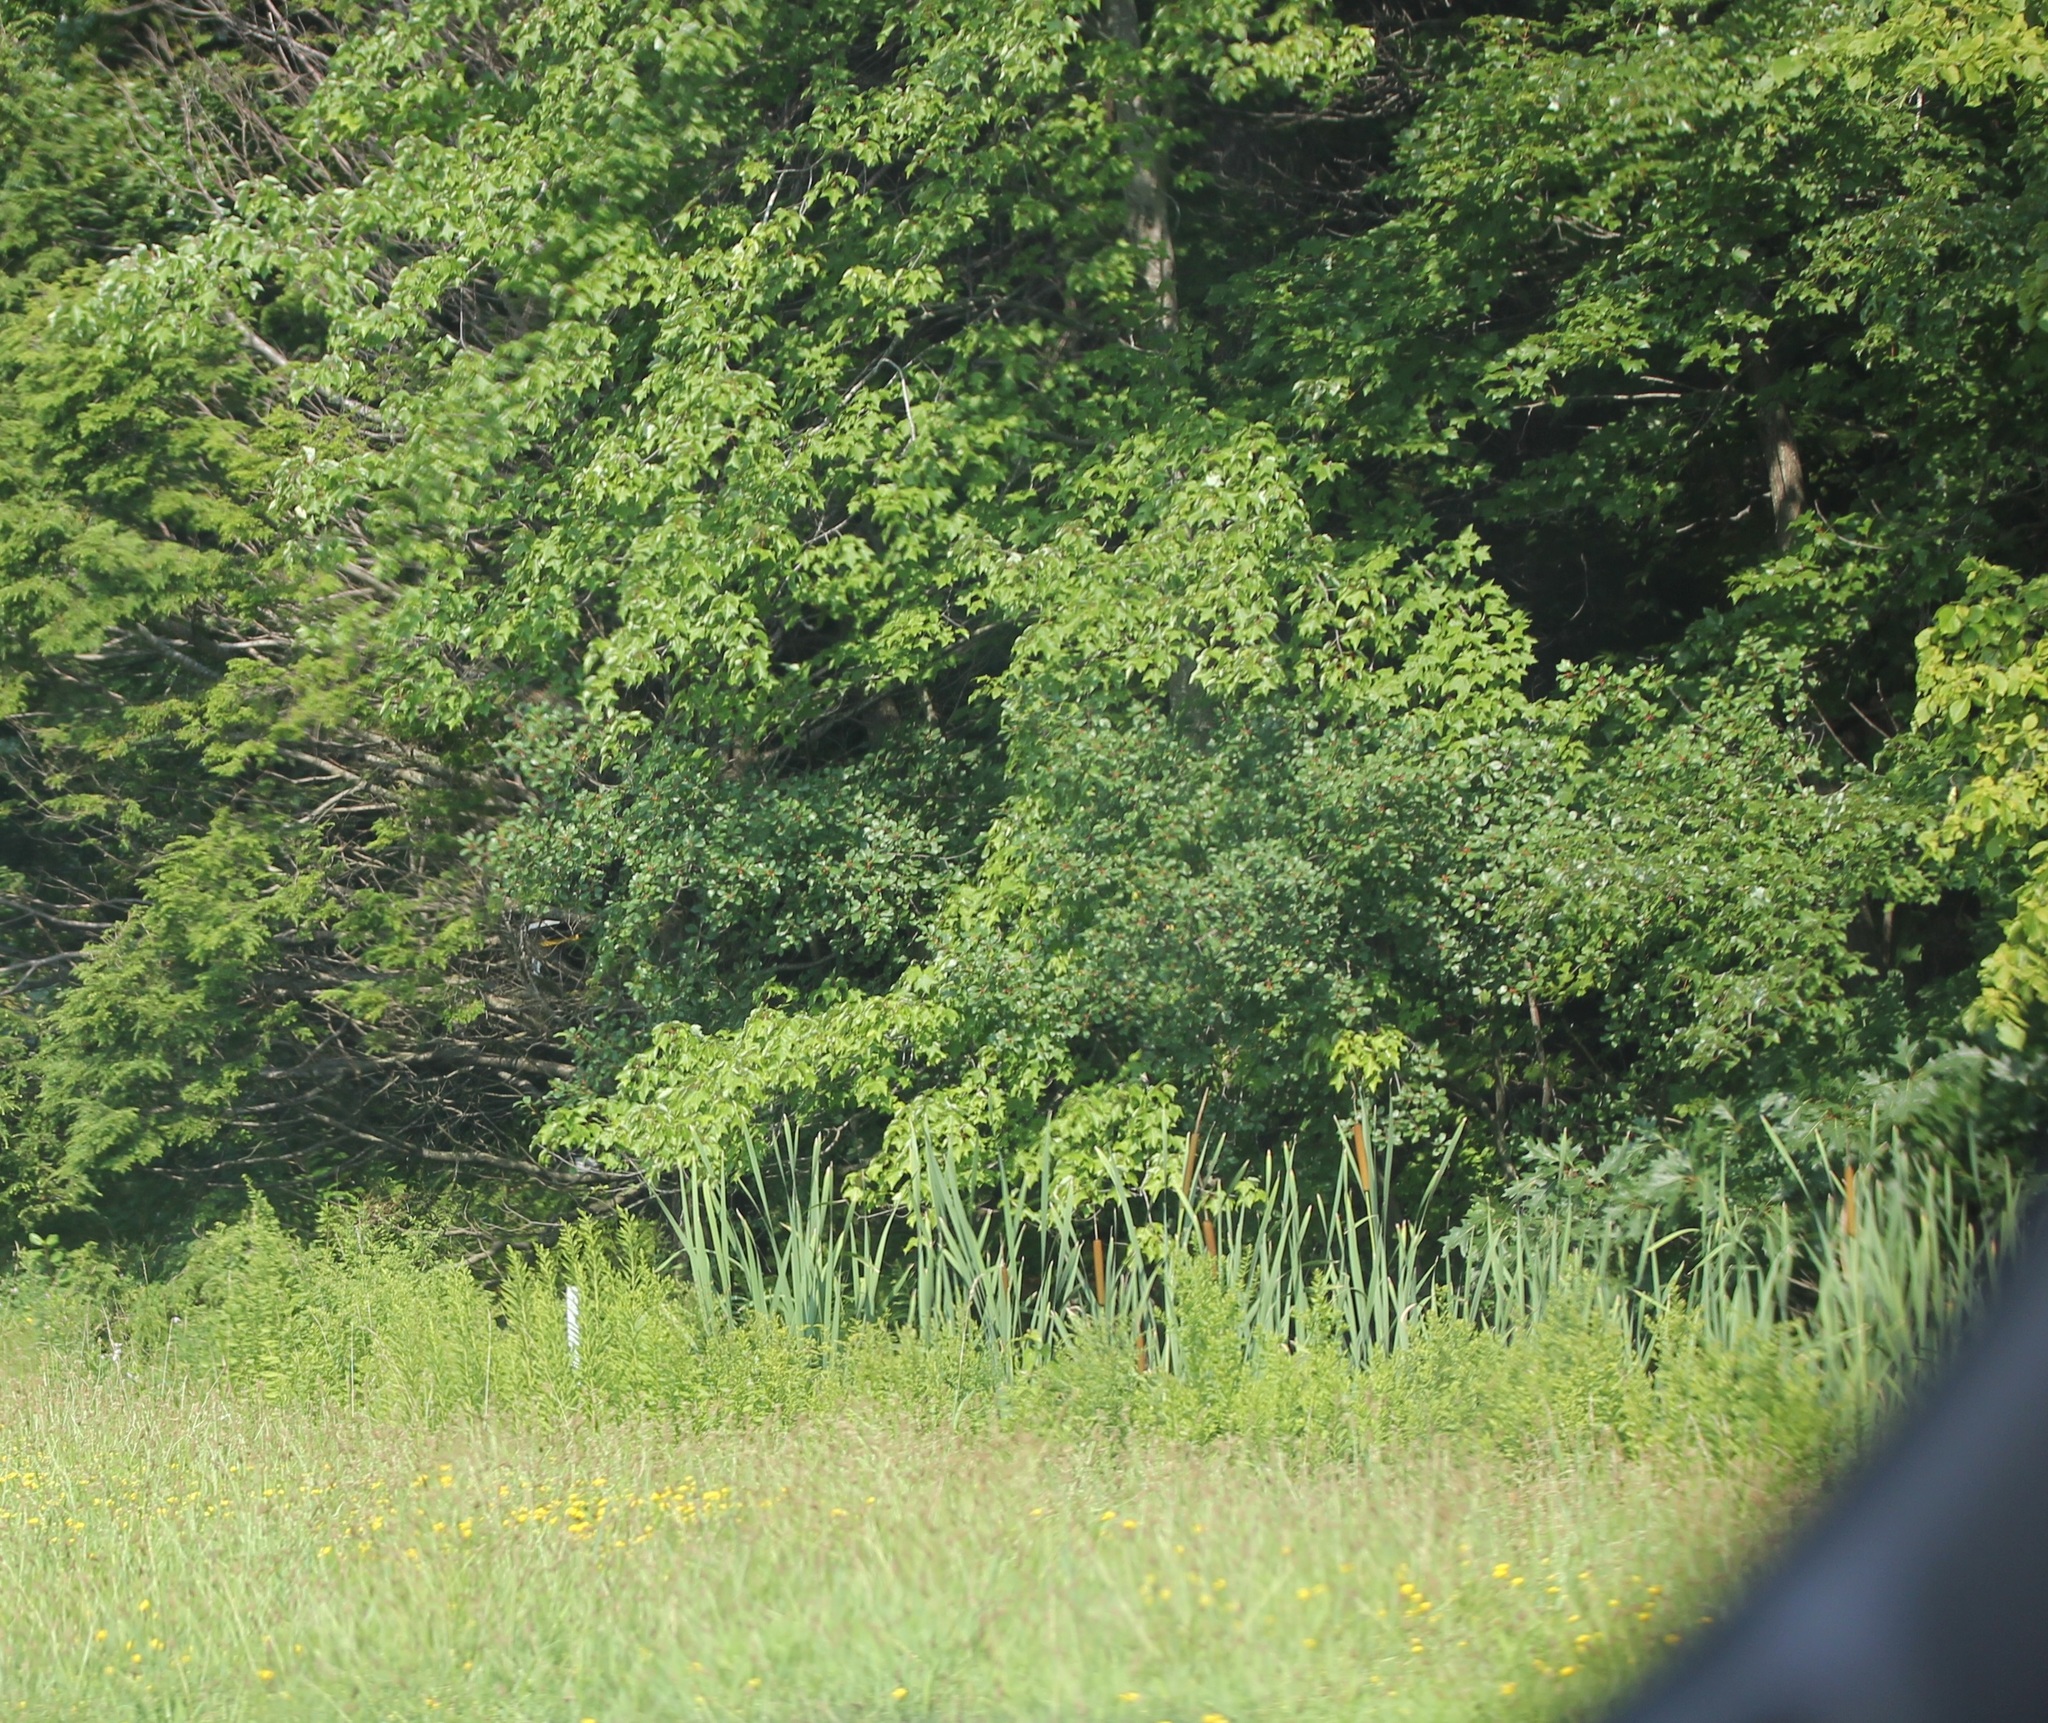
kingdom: Plantae
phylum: Tracheophyta
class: Magnoliopsida
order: Sapindales
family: Sapindaceae
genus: Acer
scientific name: Acer rubrum
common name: Red maple
